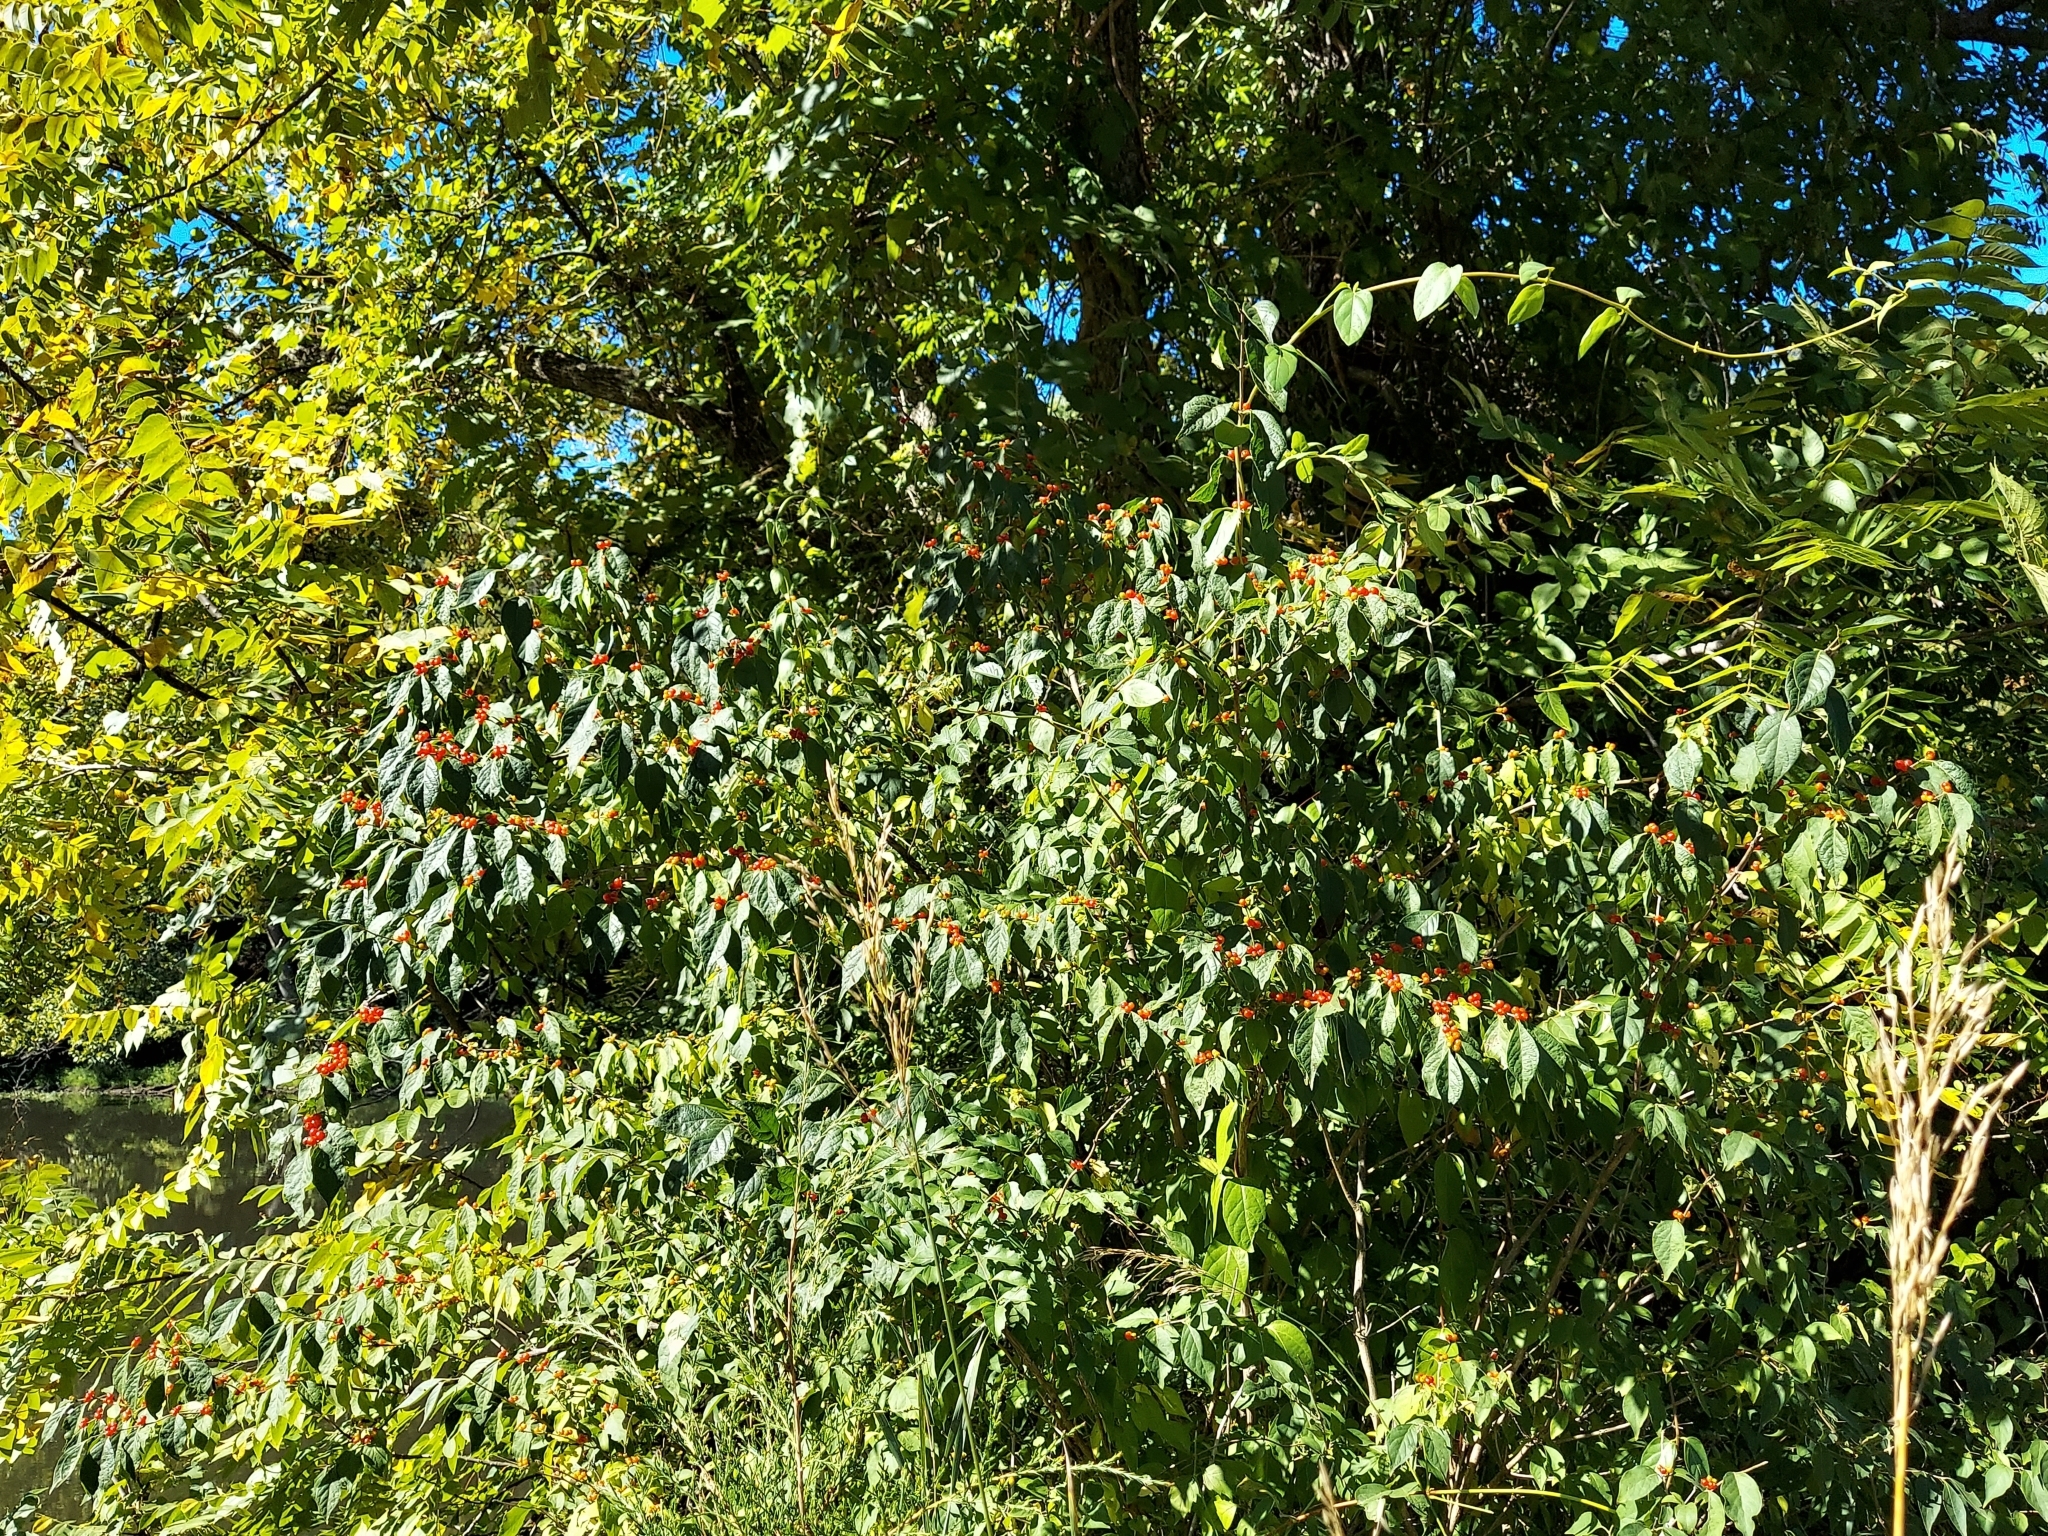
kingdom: Plantae
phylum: Tracheophyta
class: Magnoliopsida
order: Dipsacales
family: Caprifoliaceae
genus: Lonicera
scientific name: Lonicera maackii
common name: Amur honeysuckle
